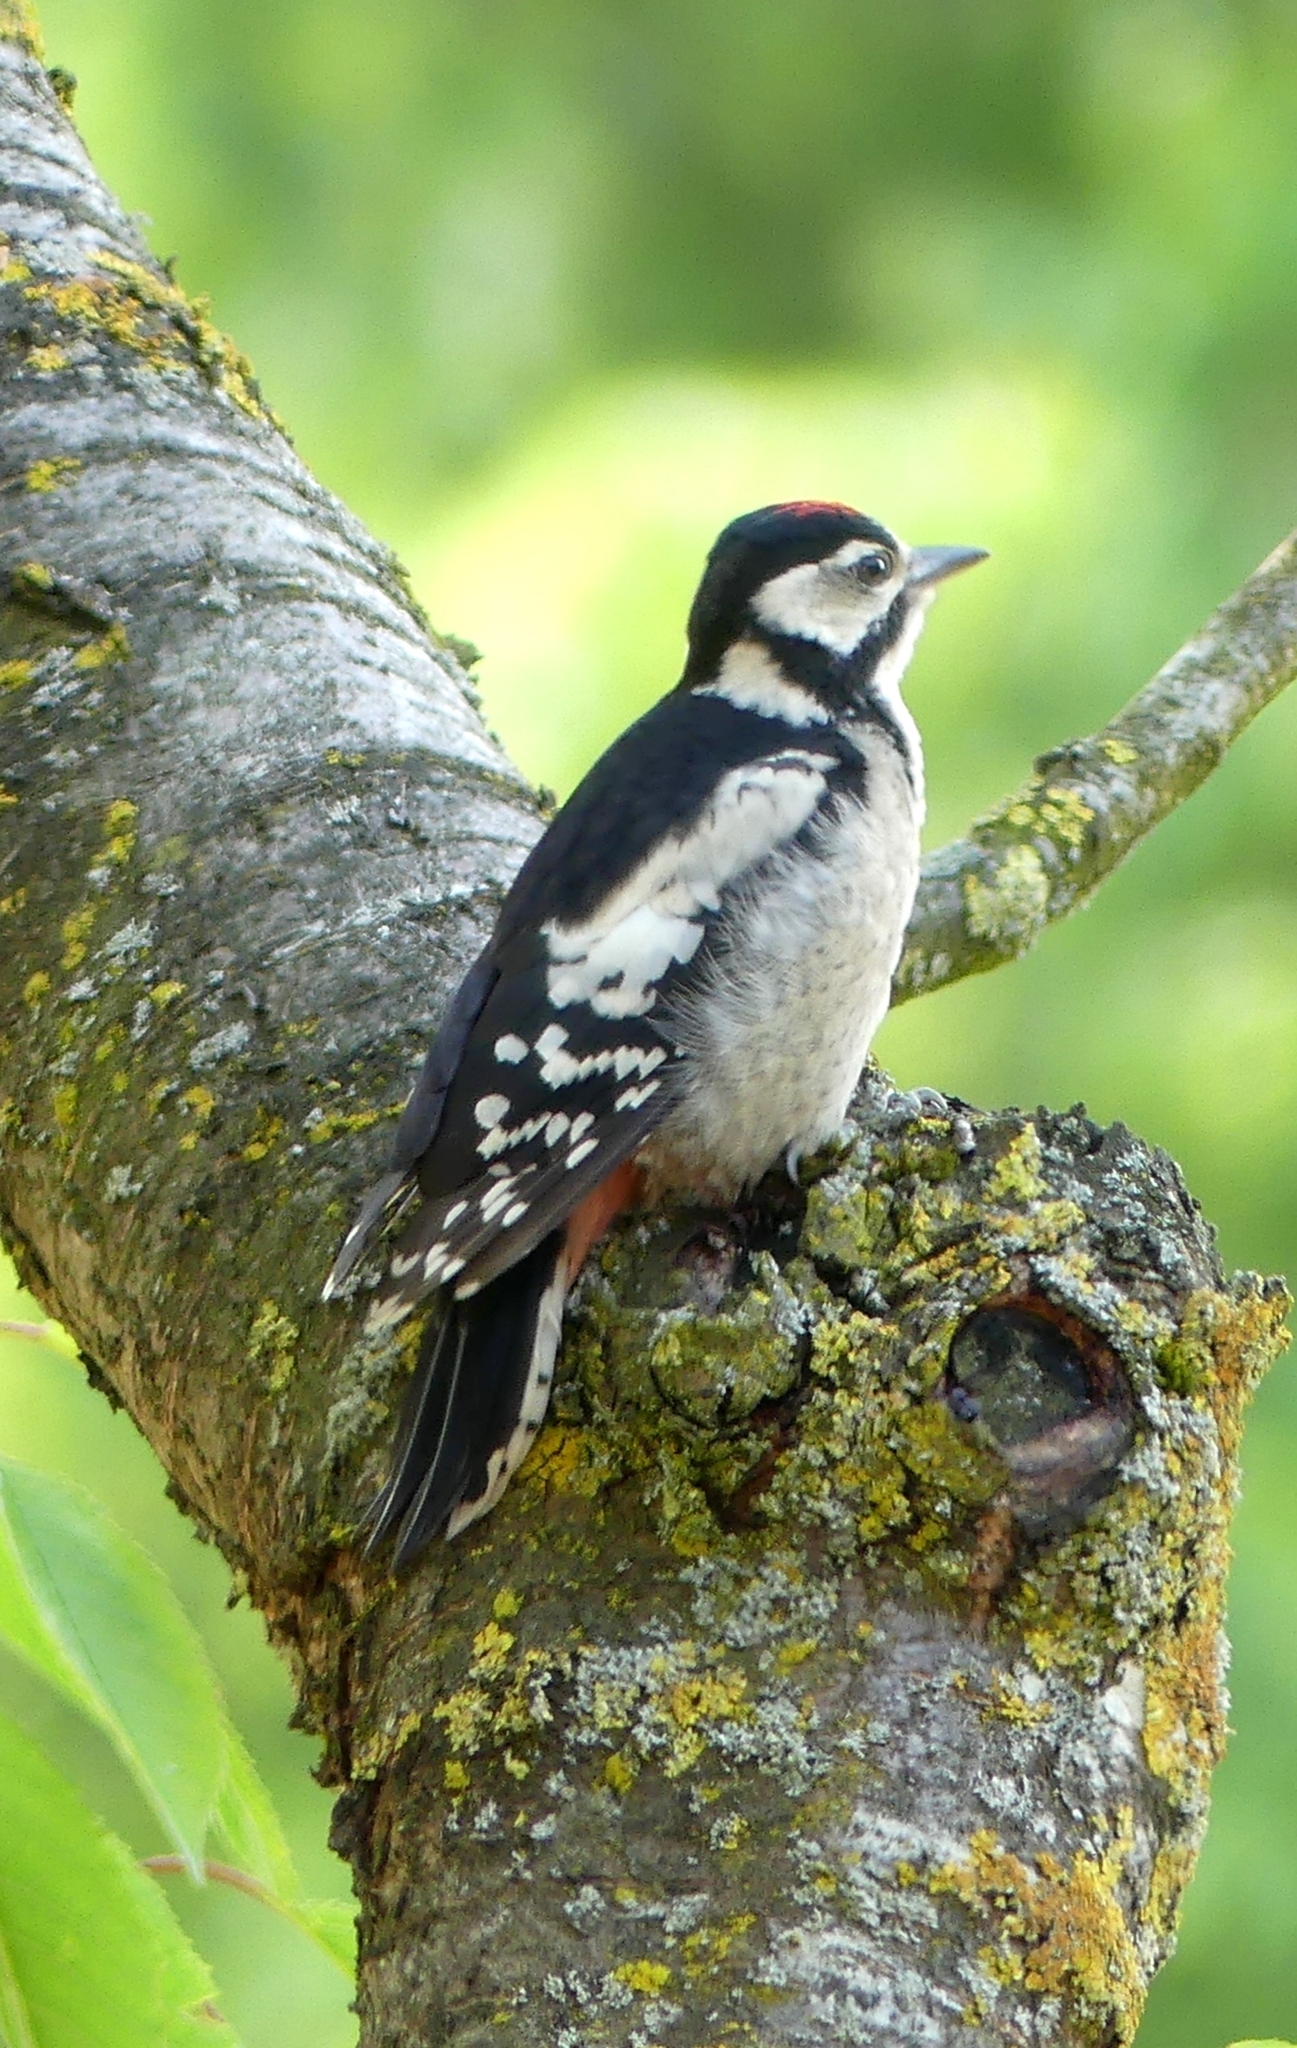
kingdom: Animalia
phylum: Chordata
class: Aves
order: Piciformes
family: Picidae
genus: Dendrocopos
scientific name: Dendrocopos major
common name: Great spotted woodpecker
